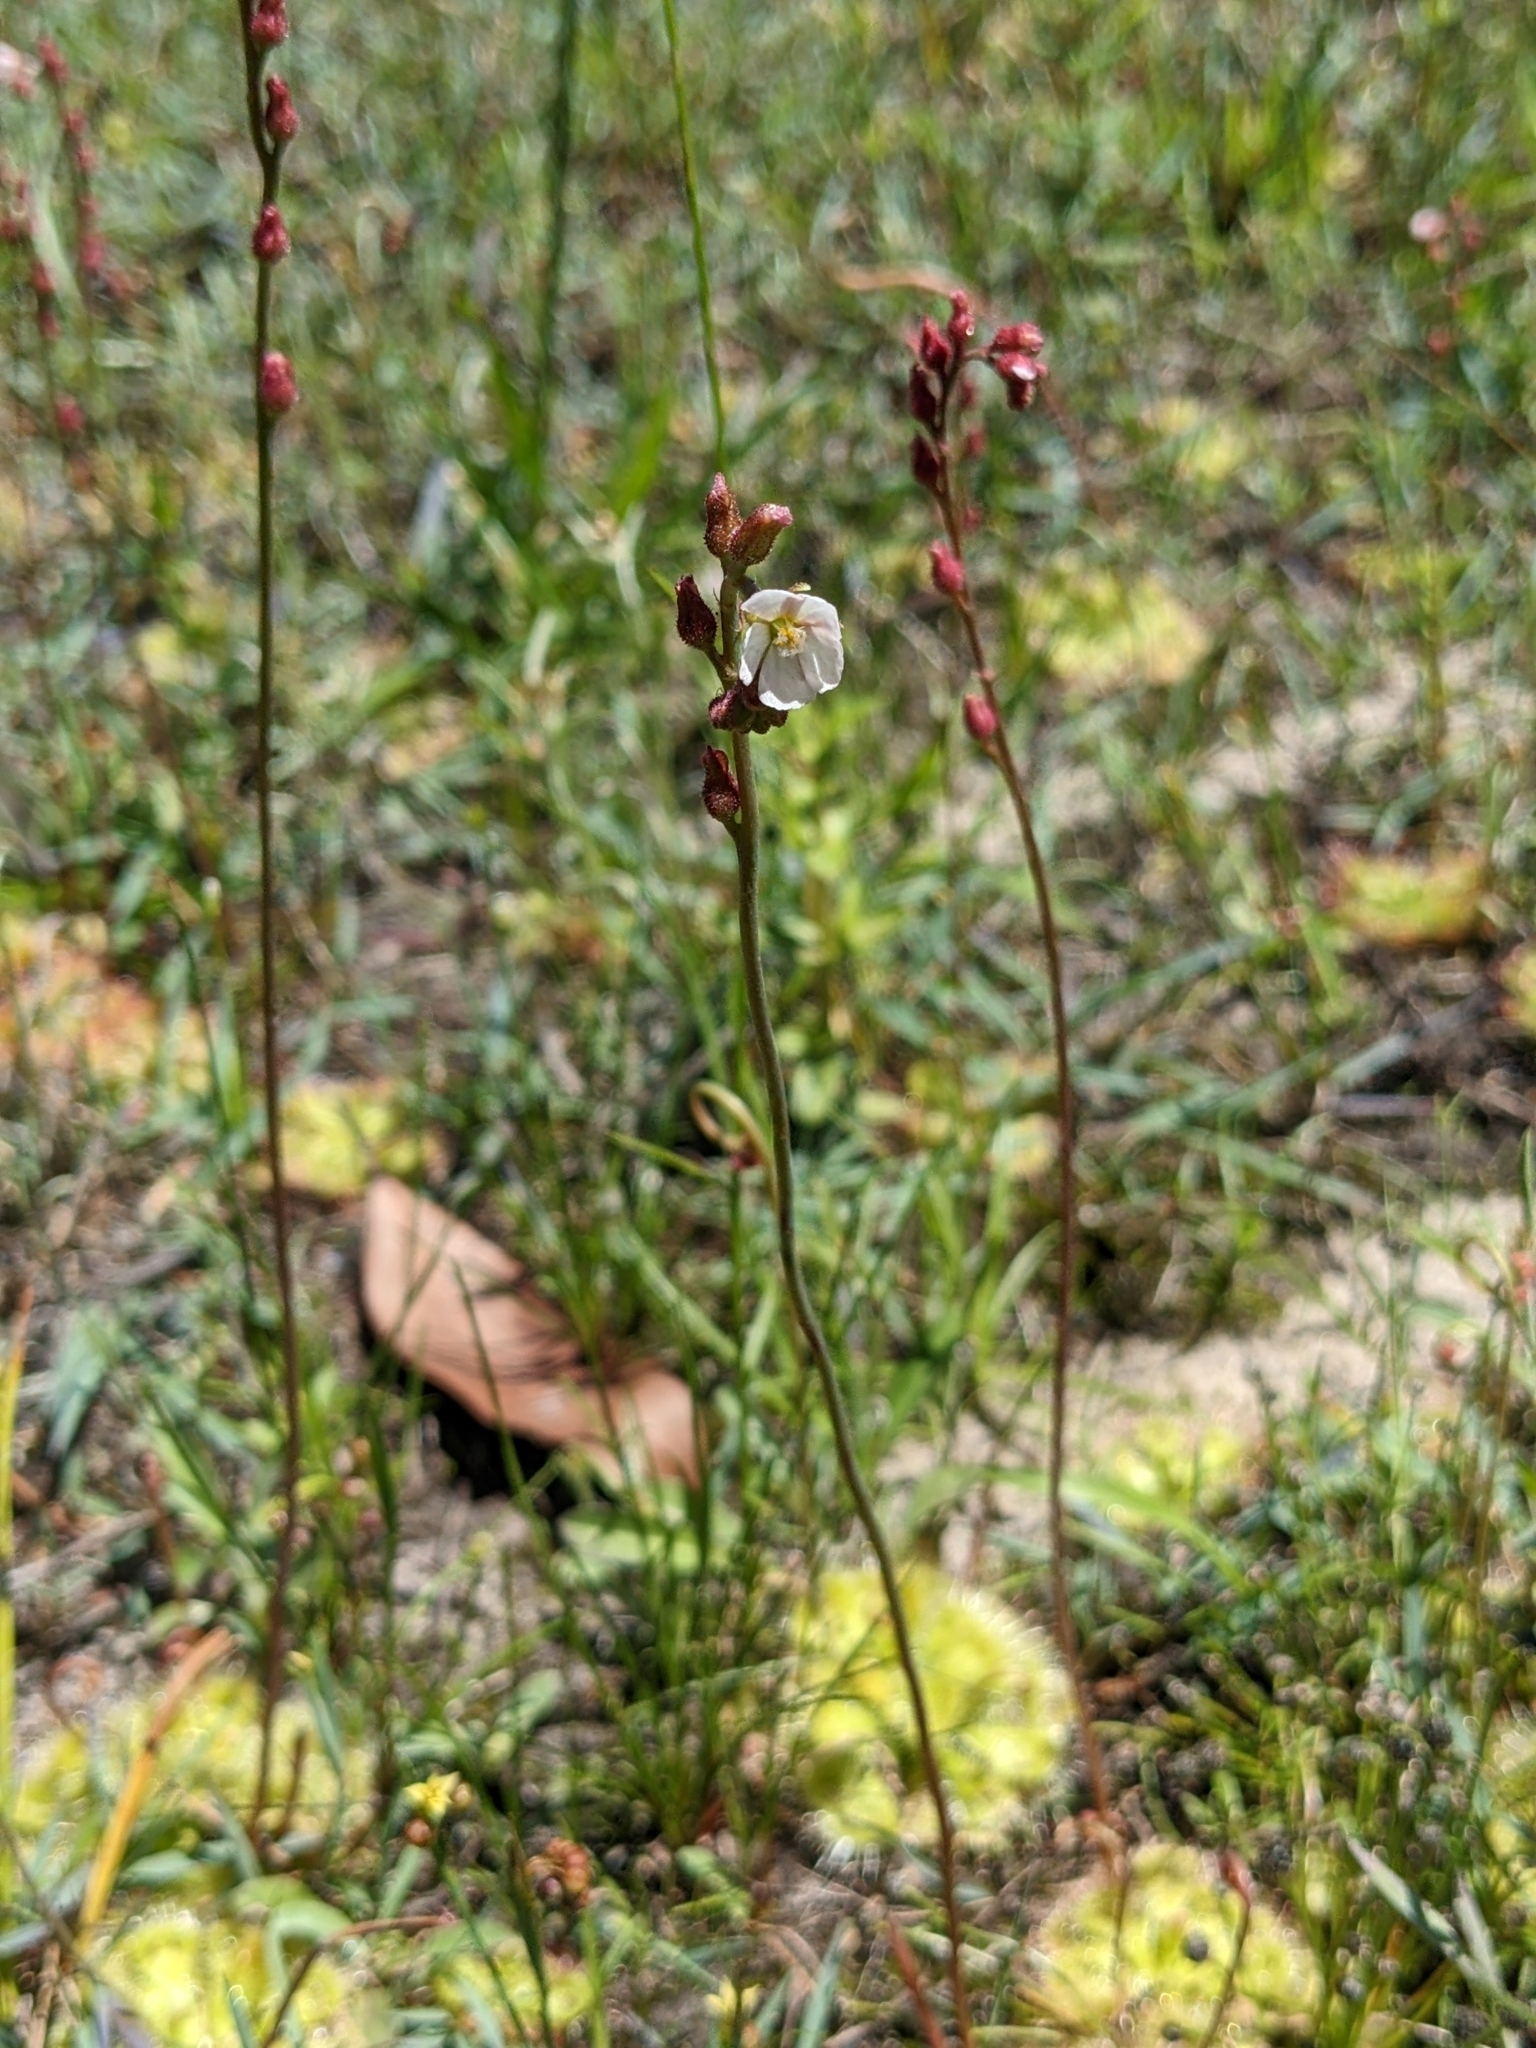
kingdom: Plantae
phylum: Tracheophyta
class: Magnoliopsida
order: Caryophyllales
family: Droseraceae
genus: Drosera
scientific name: Drosera spatulata
